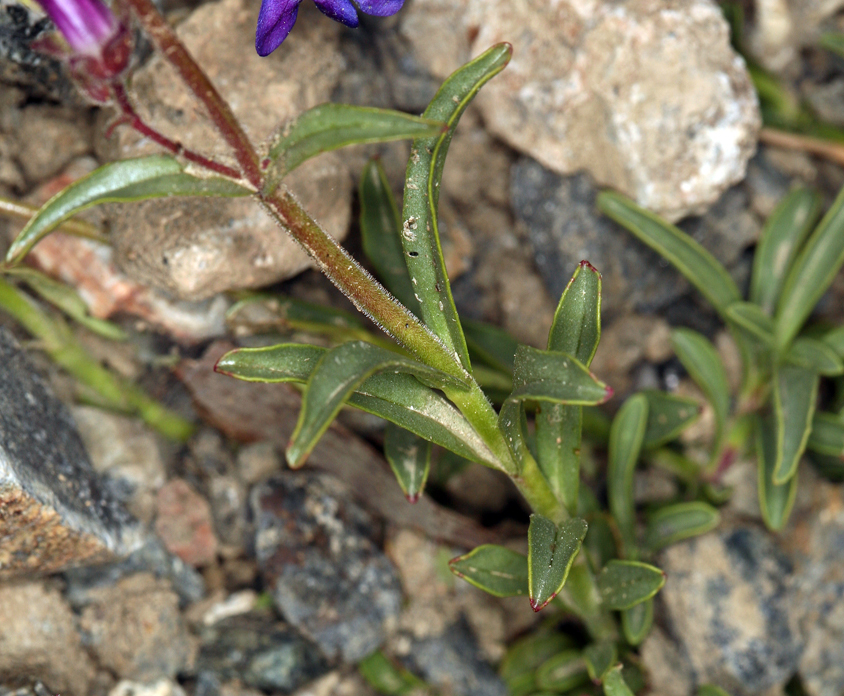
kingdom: Plantae
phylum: Tracheophyta
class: Magnoliopsida
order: Lamiales
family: Plantaginaceae
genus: Penstemon
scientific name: Penstemon roezlii
